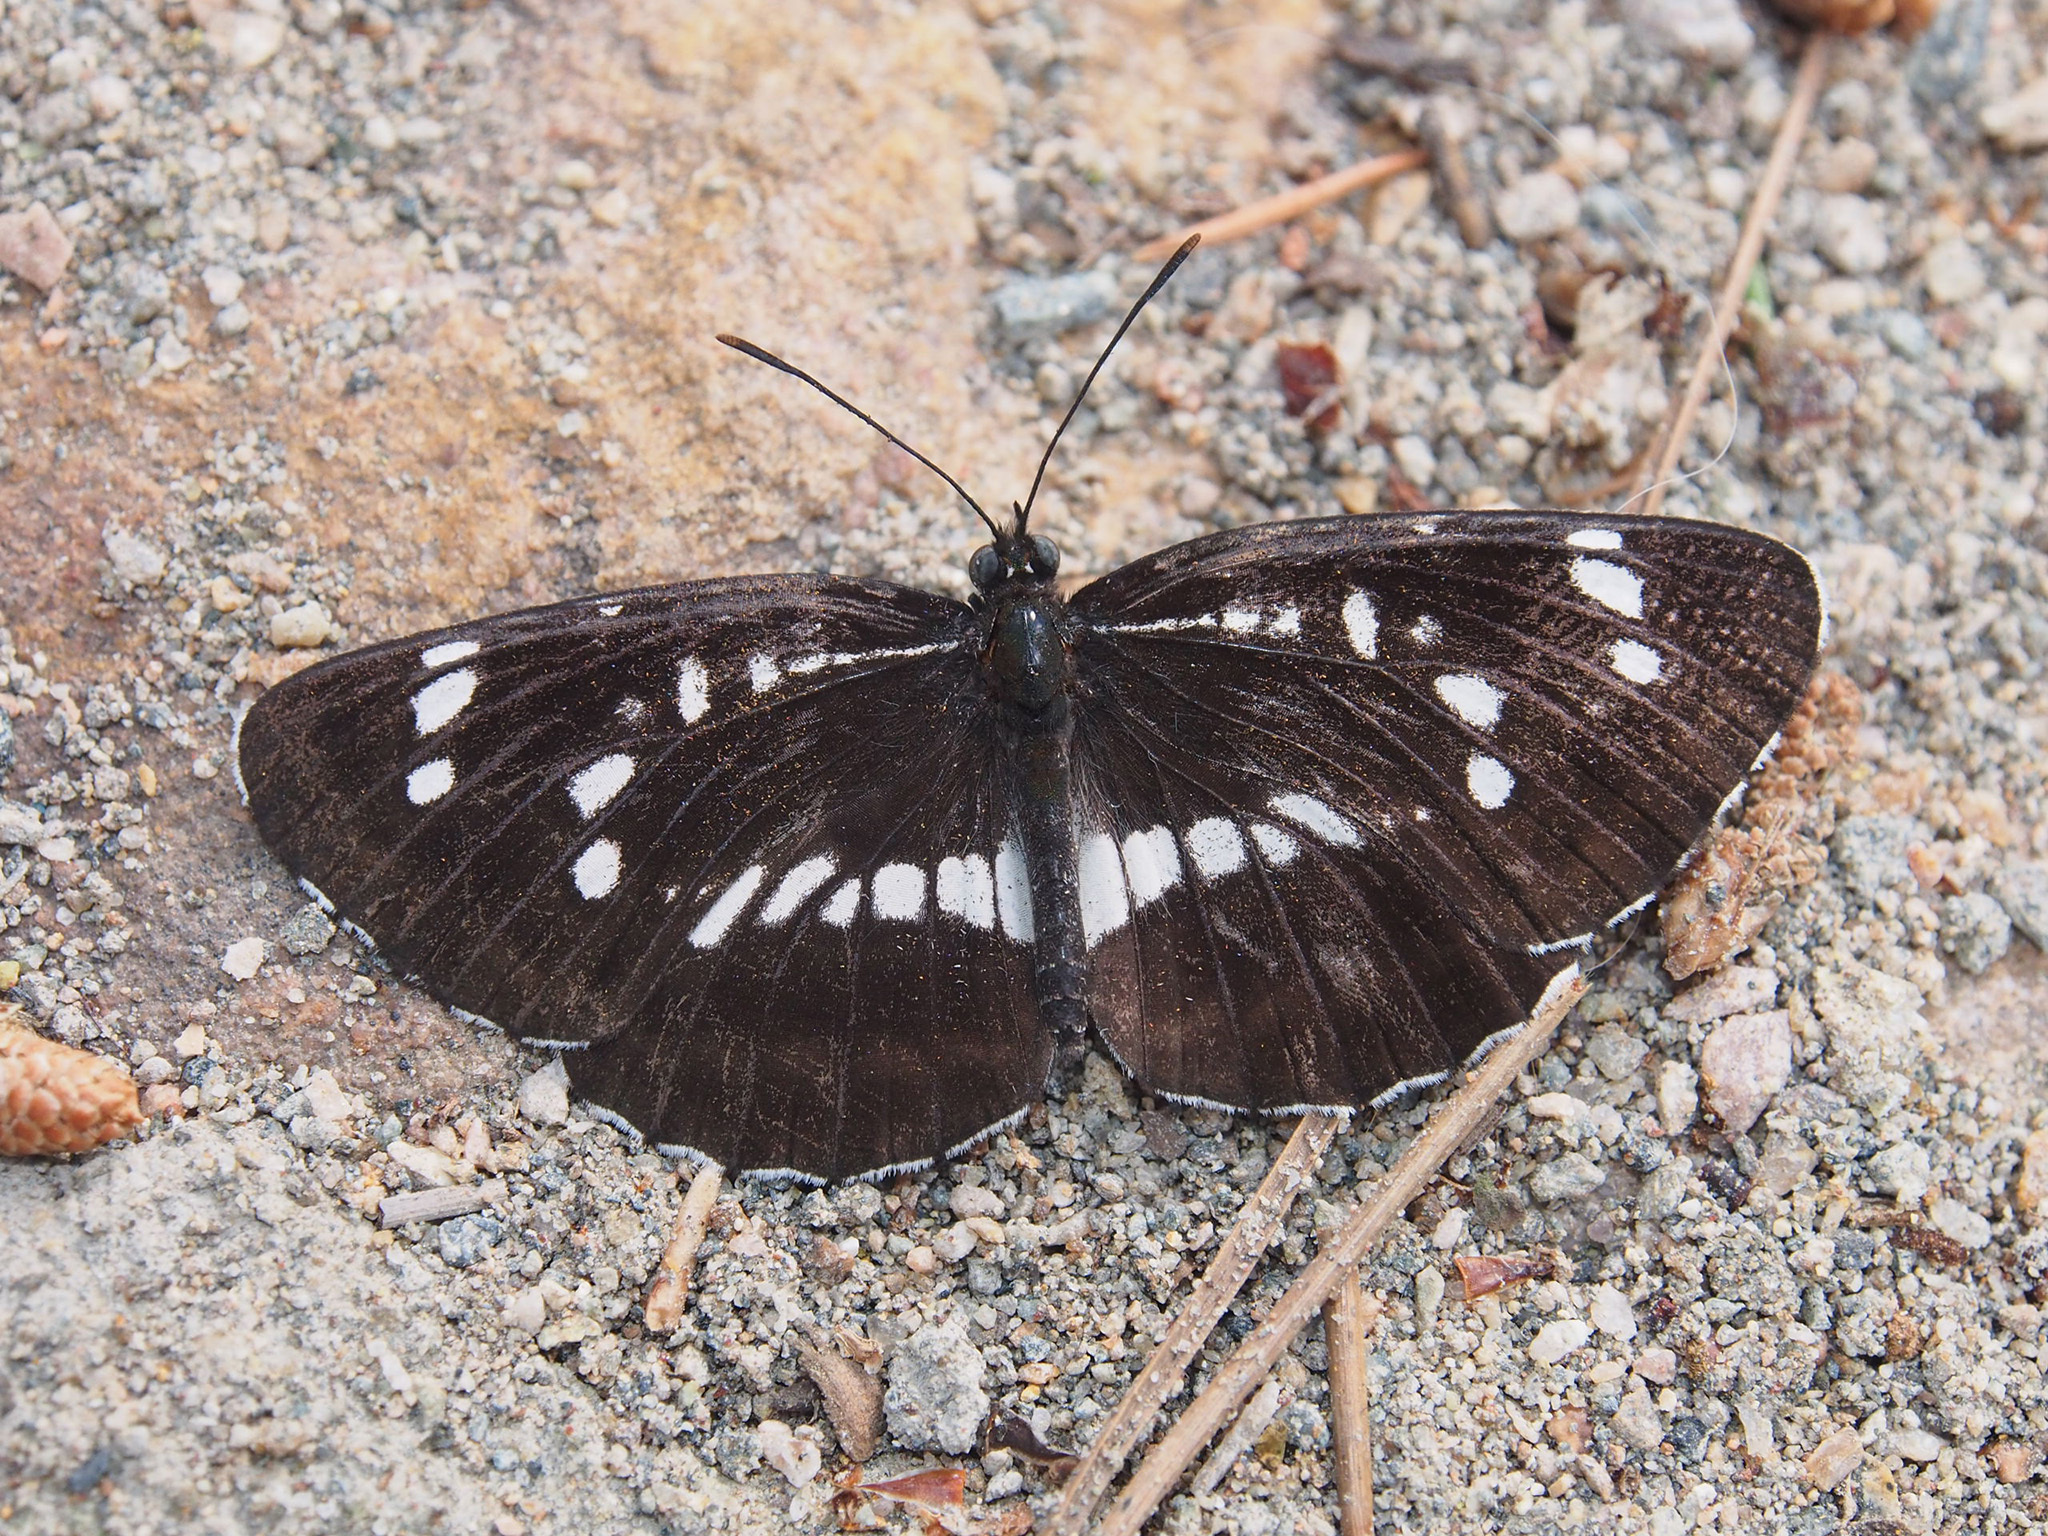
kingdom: Animalia
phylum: Arthropoda
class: Insecta
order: Lepidoptera
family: Nymphalidae
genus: Neptis
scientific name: Neptis rivularis
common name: Hungarian glider
